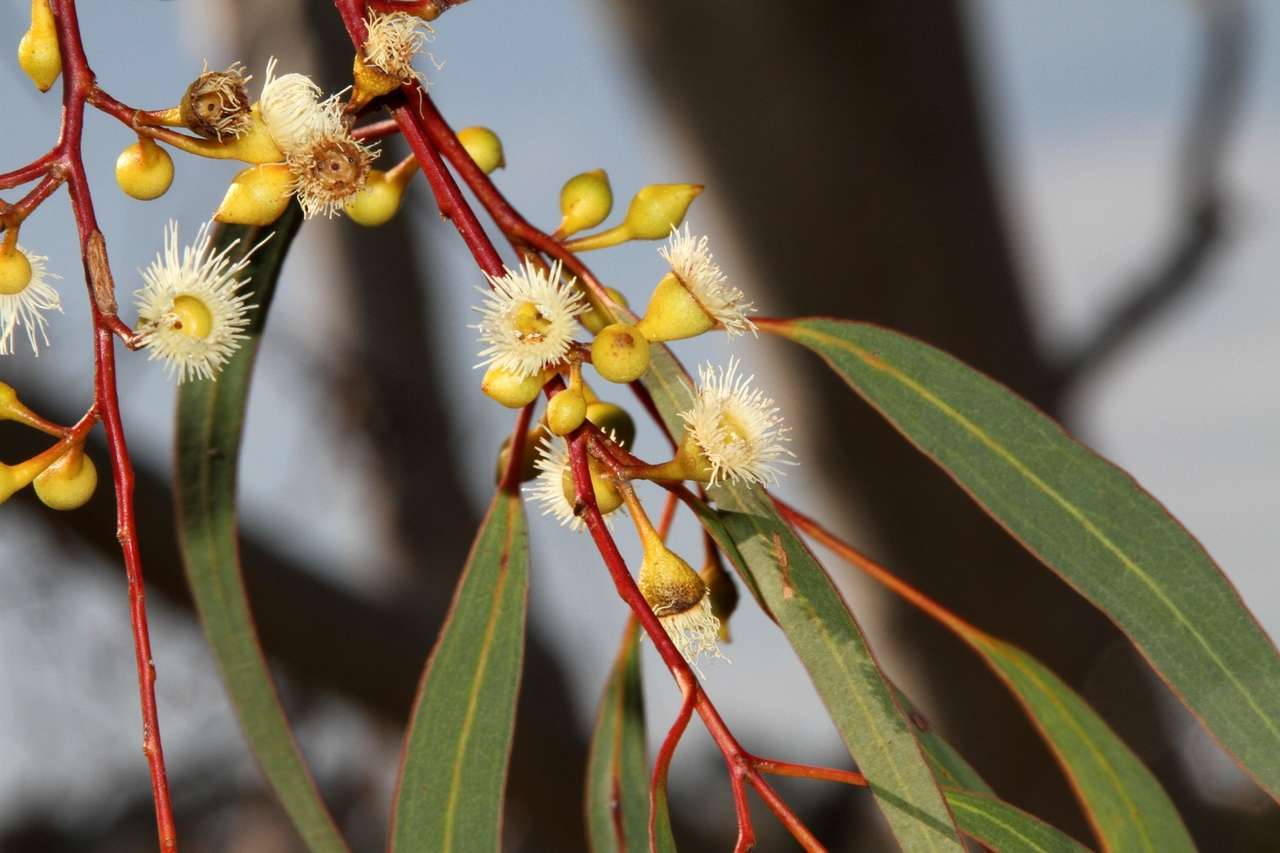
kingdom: Plantae
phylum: Tracheophyta
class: Magnoliopsida
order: Myrtales
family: Myrtaceae
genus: Eucalyptus
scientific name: Eucalyptus leucoxylon
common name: Blue gum
